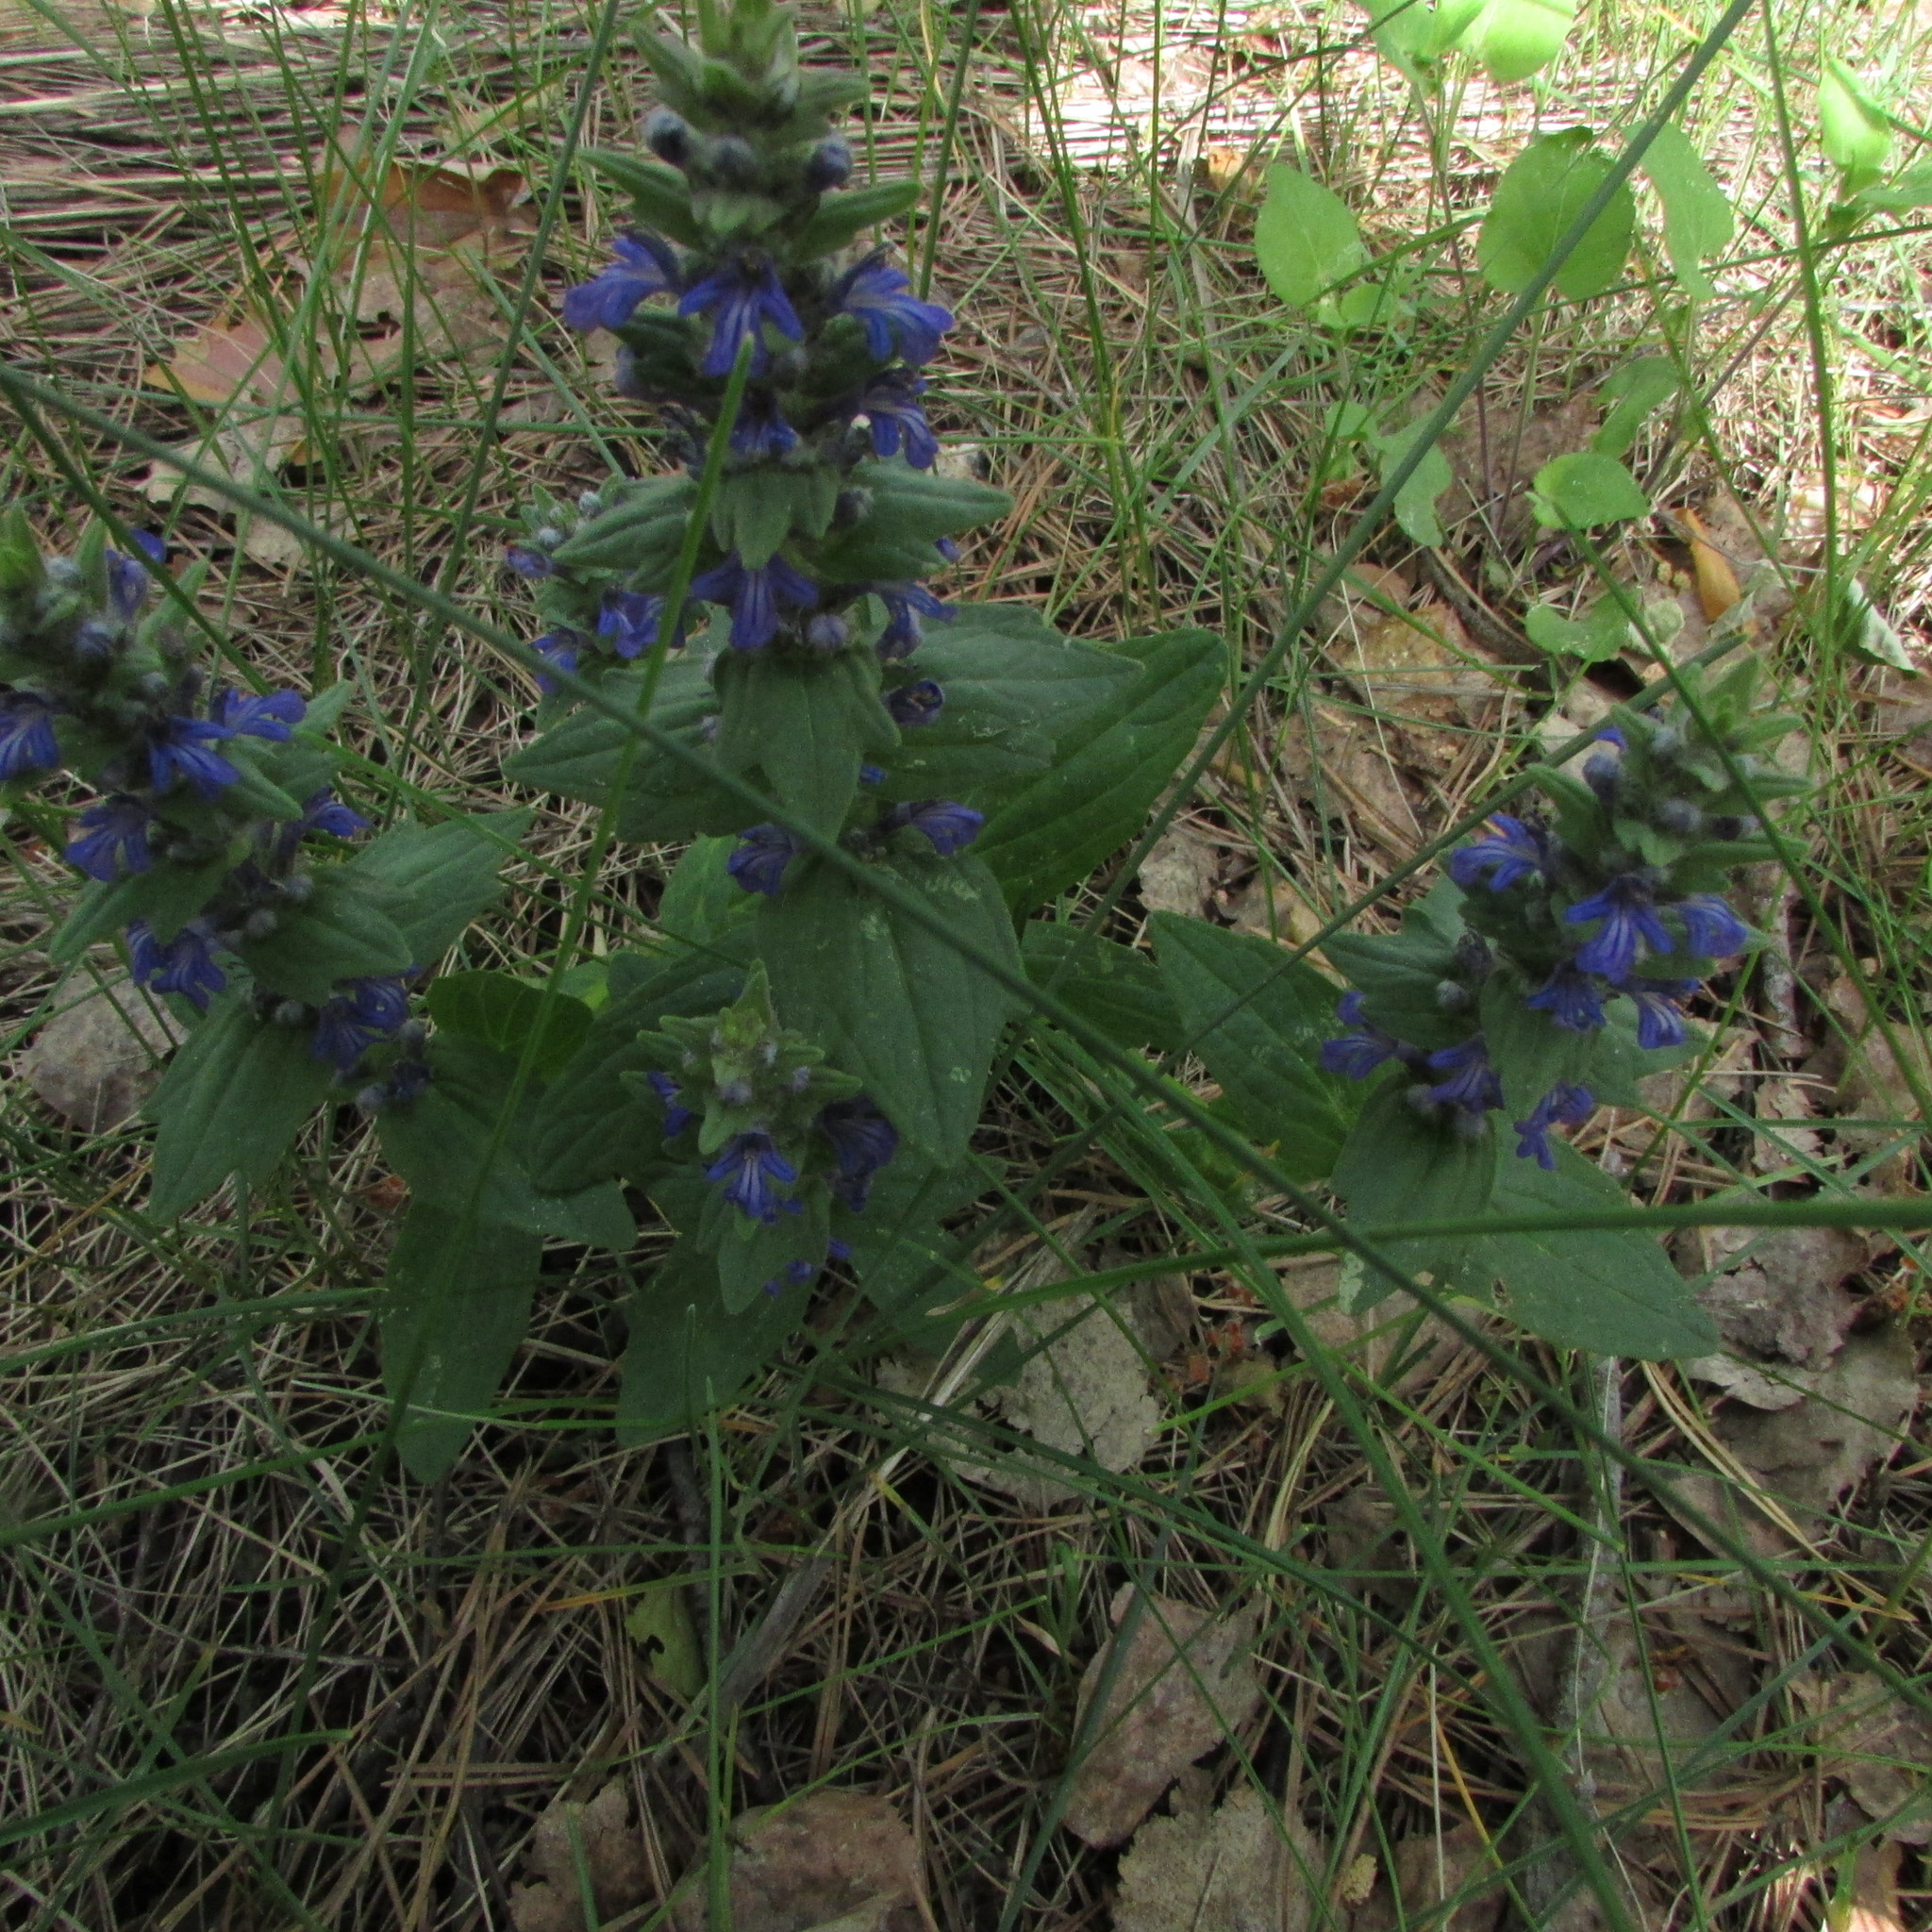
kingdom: Plantae
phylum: Tracheophyta
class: Magnoliopsida
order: Lamiales
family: Lamiaceae
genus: Ajuga
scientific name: Ajuga genevensis
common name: Blue bugle
